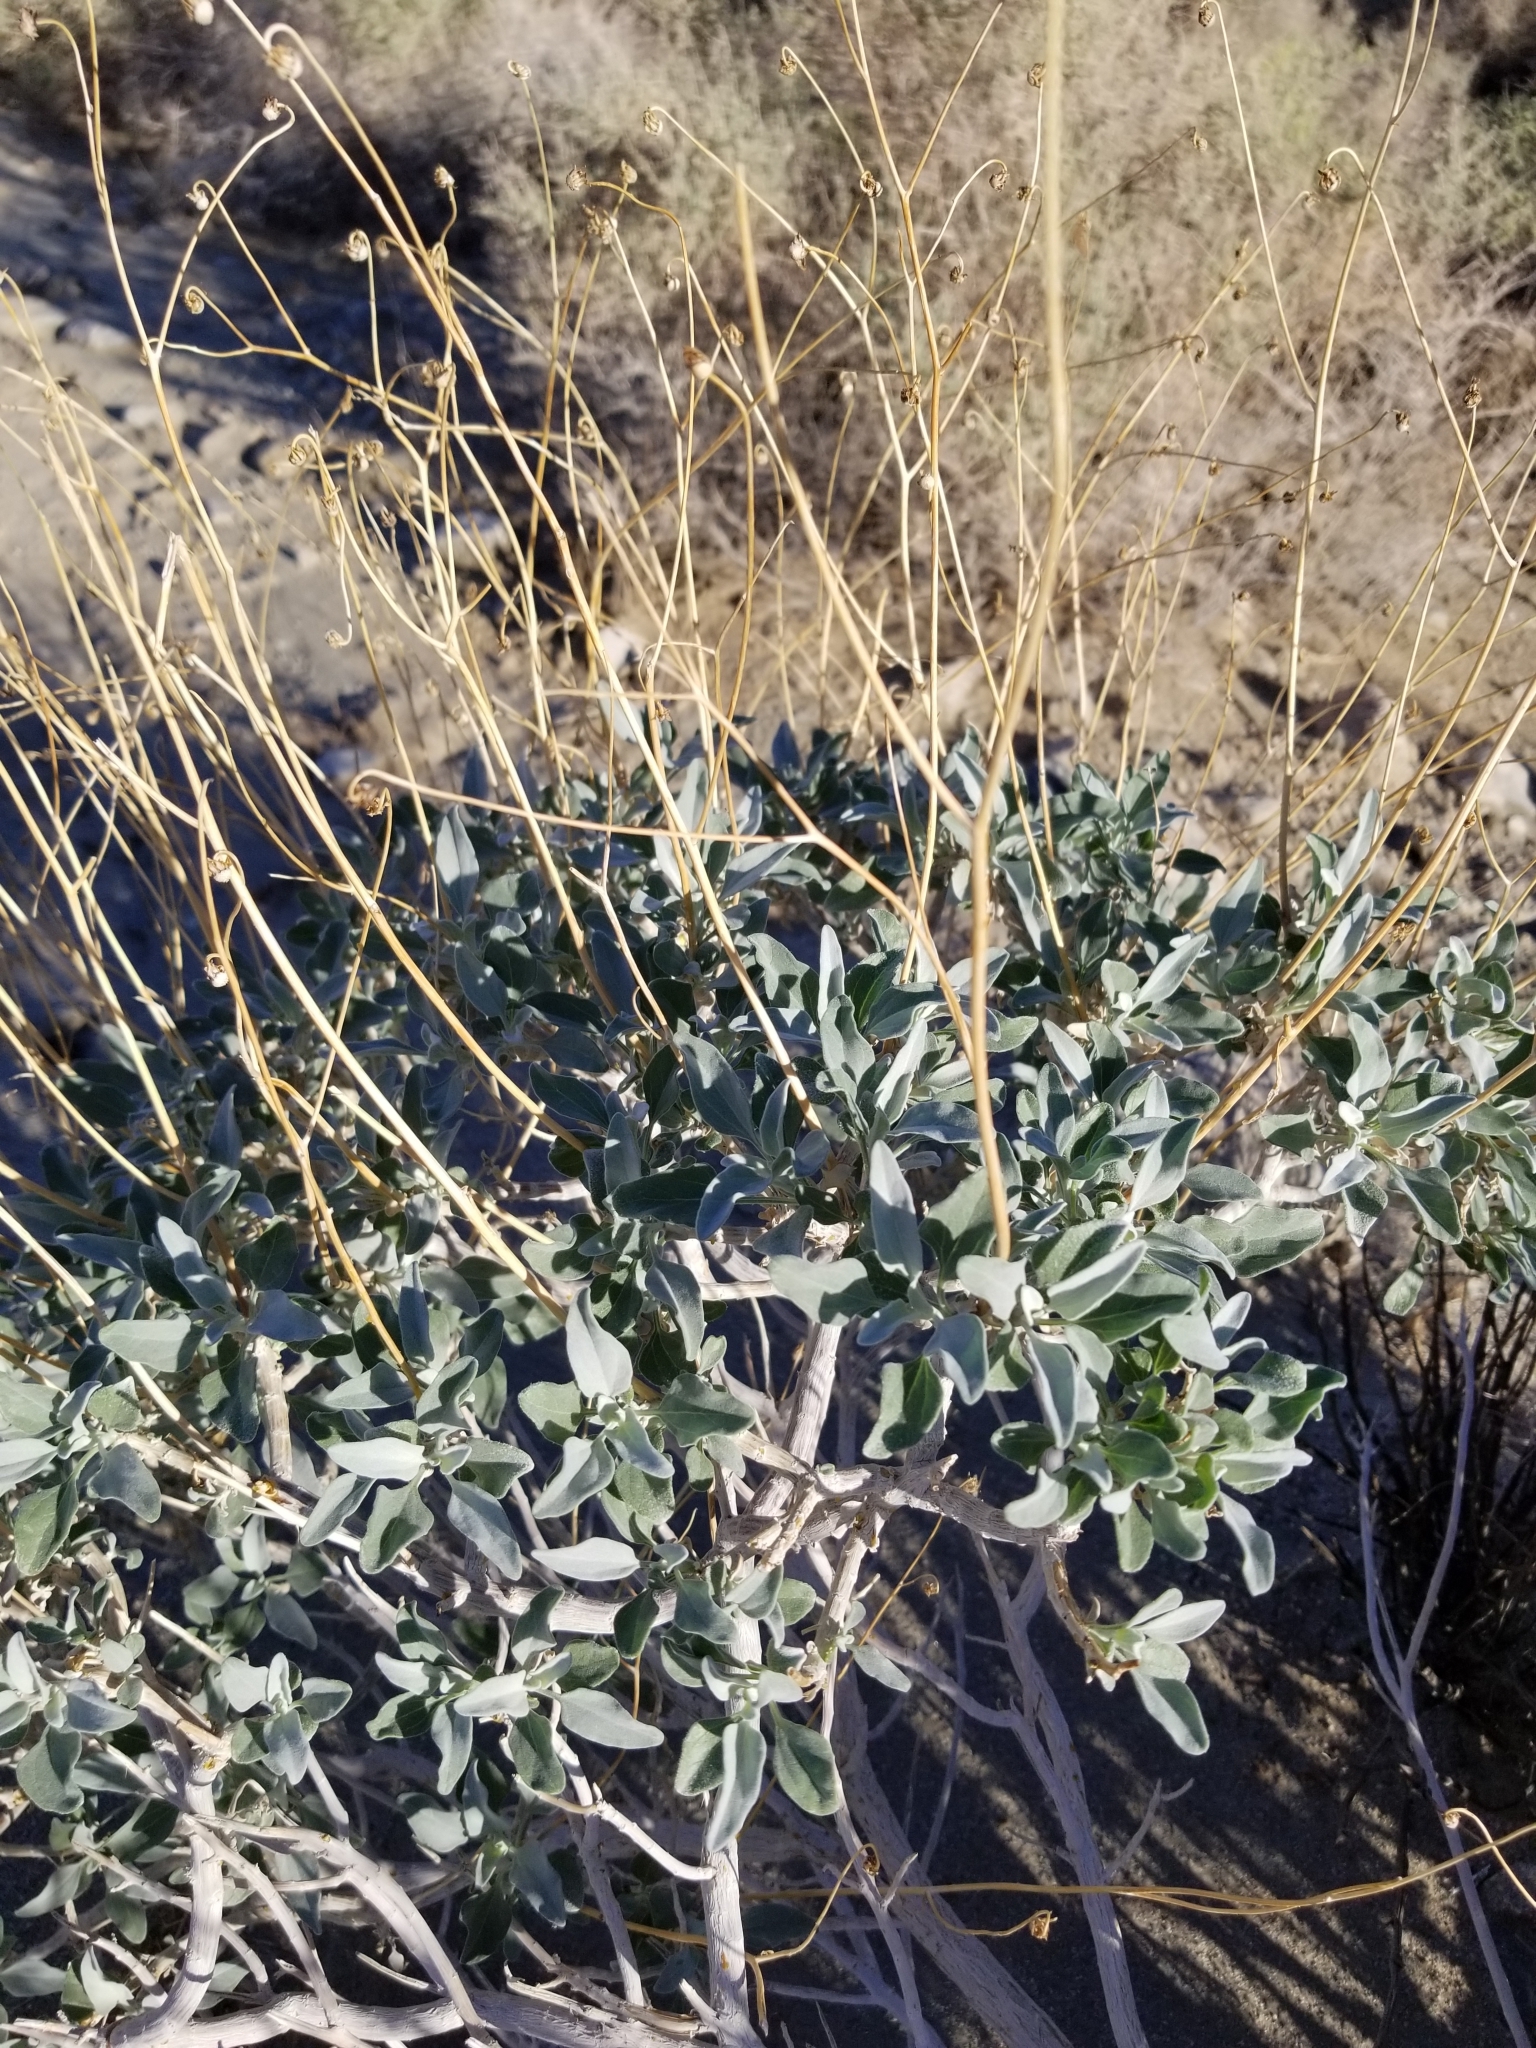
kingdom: Plantae
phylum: Tracheophyta
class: Magnoliopsida
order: Asterales
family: Asteraceae
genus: Encelia
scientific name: Encelia farinosa
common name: Brittlebush
